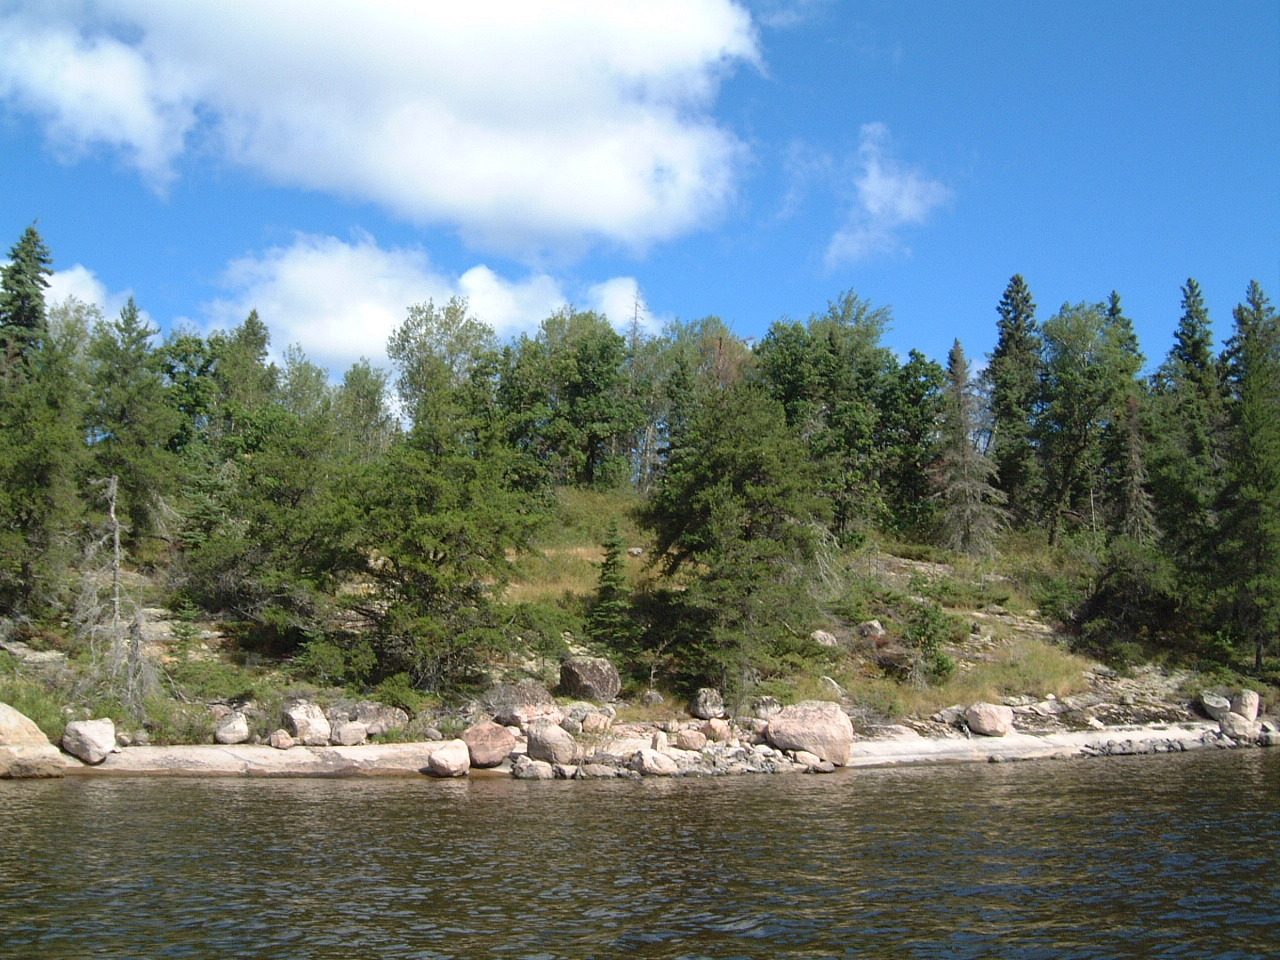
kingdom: Plantae
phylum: Tracheophyta
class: Magnoliopsida
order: Fagales
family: Fagaceae
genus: Quercus
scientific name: Quercus macrocarpa
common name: Bur oak
